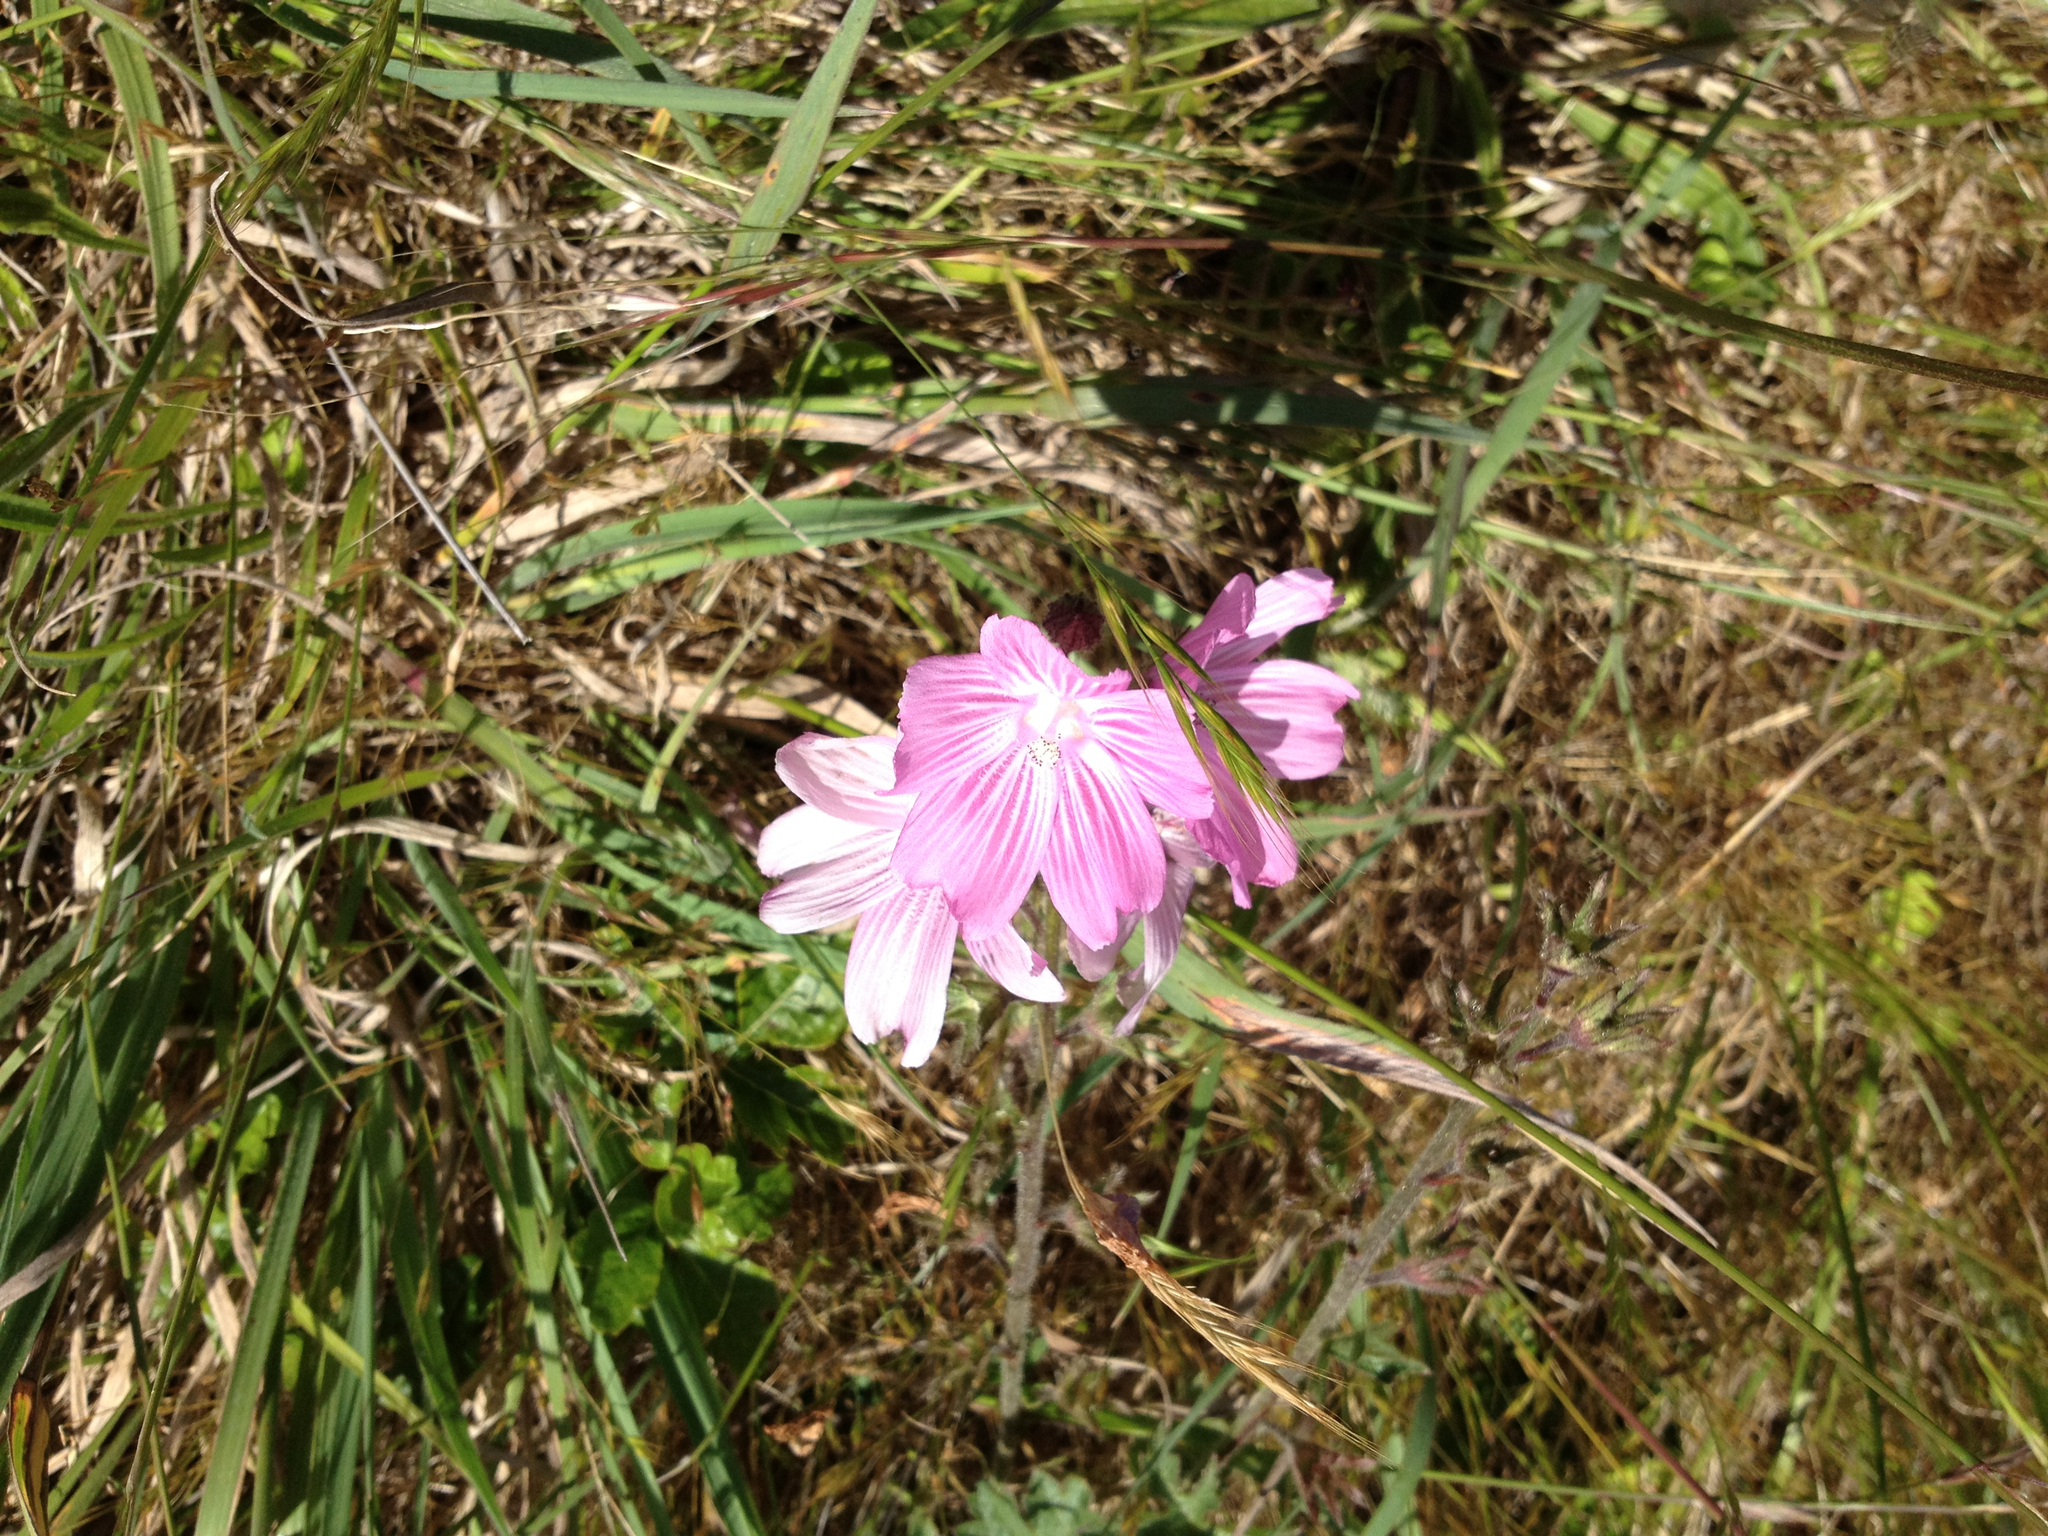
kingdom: Plantae
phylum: Tracheophyta
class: Magnoliopsida
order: Malvales
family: Malvaceae
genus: Sidalcea
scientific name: Sidalcea malviflora
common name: Greek mallow
